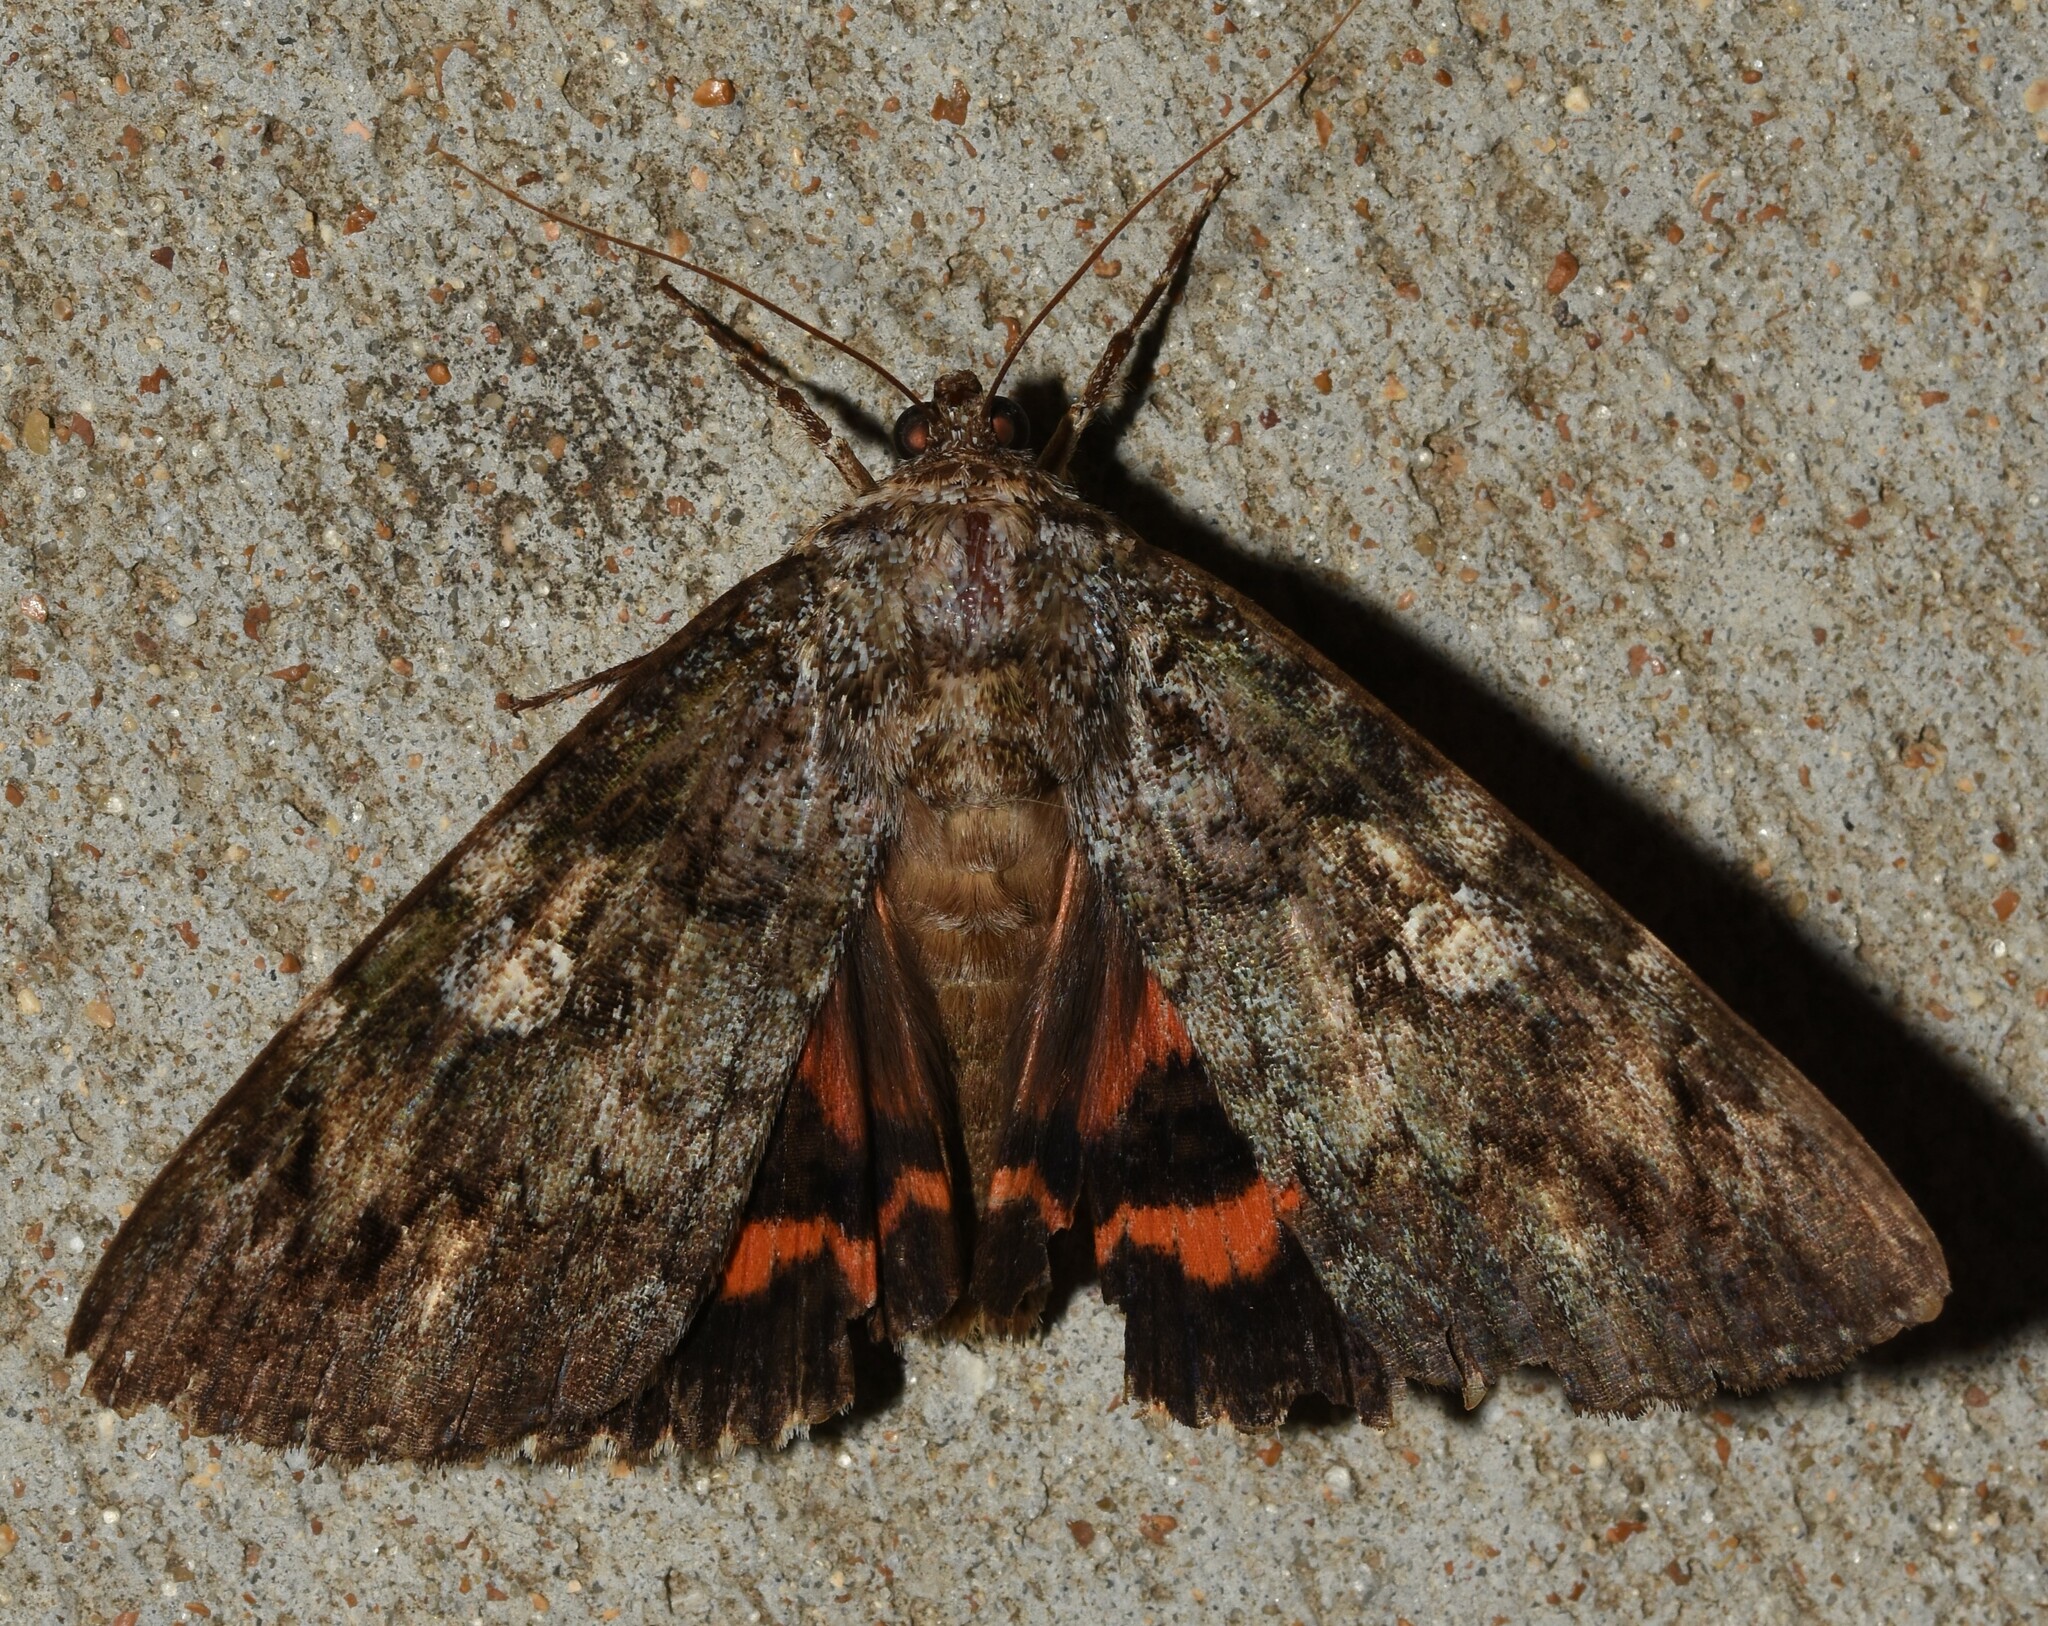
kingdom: Animalia
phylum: Arthropoda
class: Insecta
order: Lepidoptera
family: Erebidae
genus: Catocala
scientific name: Catocala ilia
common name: Ilia underwing
